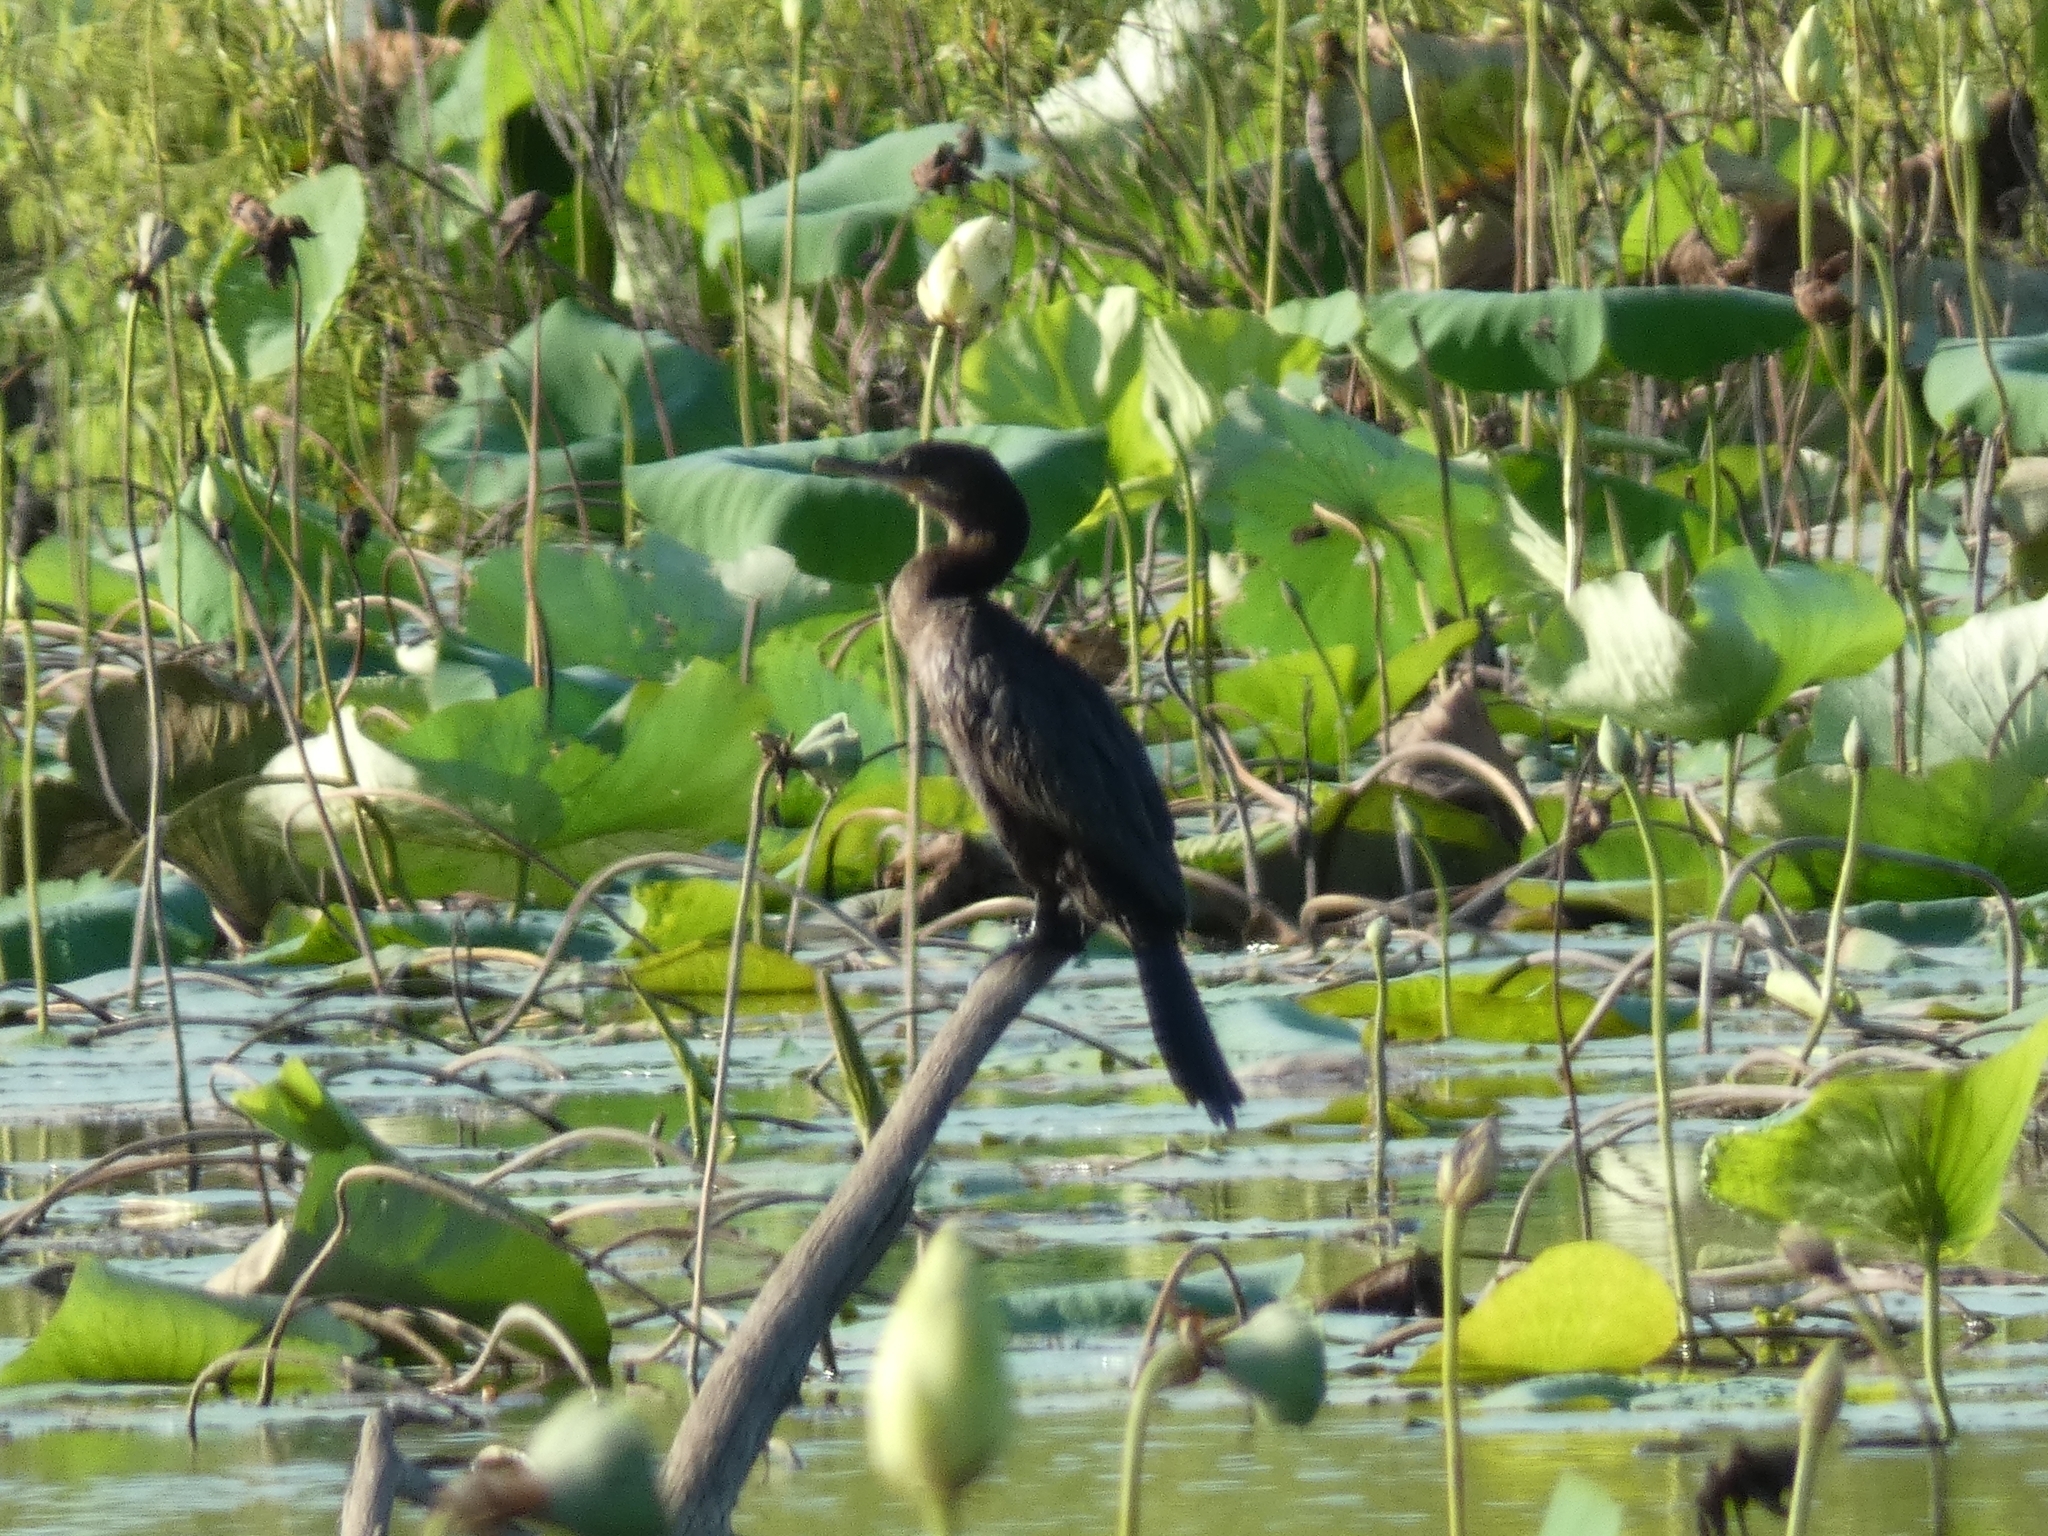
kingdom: Animalia
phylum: Chordata
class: Aves
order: Suliformes
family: Phalacrocoracidae
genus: Phalacrocorax
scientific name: Phalacrocorax brasilianus
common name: Neotropic cormorant
